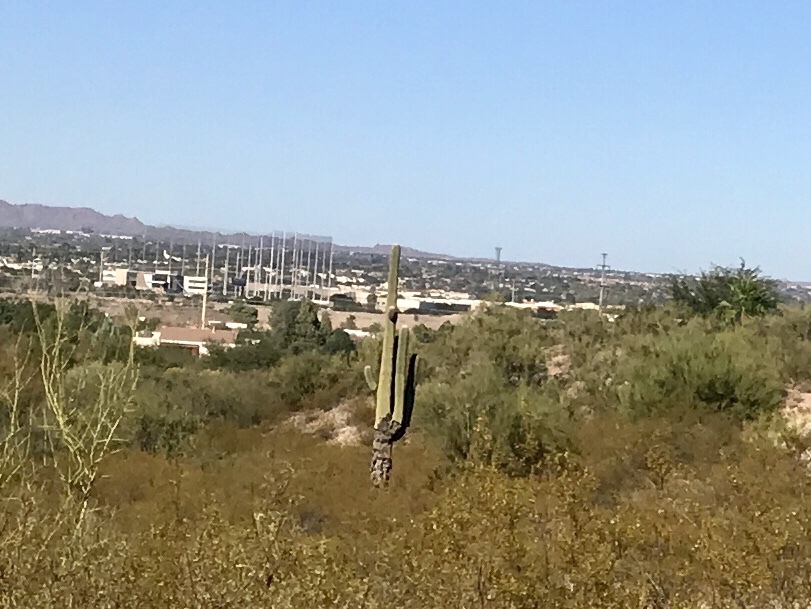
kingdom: Plantae
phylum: Tracheophyta
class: Magnoliopsida
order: Caryophyllales
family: Cactaceae
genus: Carnegiea
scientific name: Carnegiea gigantea
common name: Saguaro
